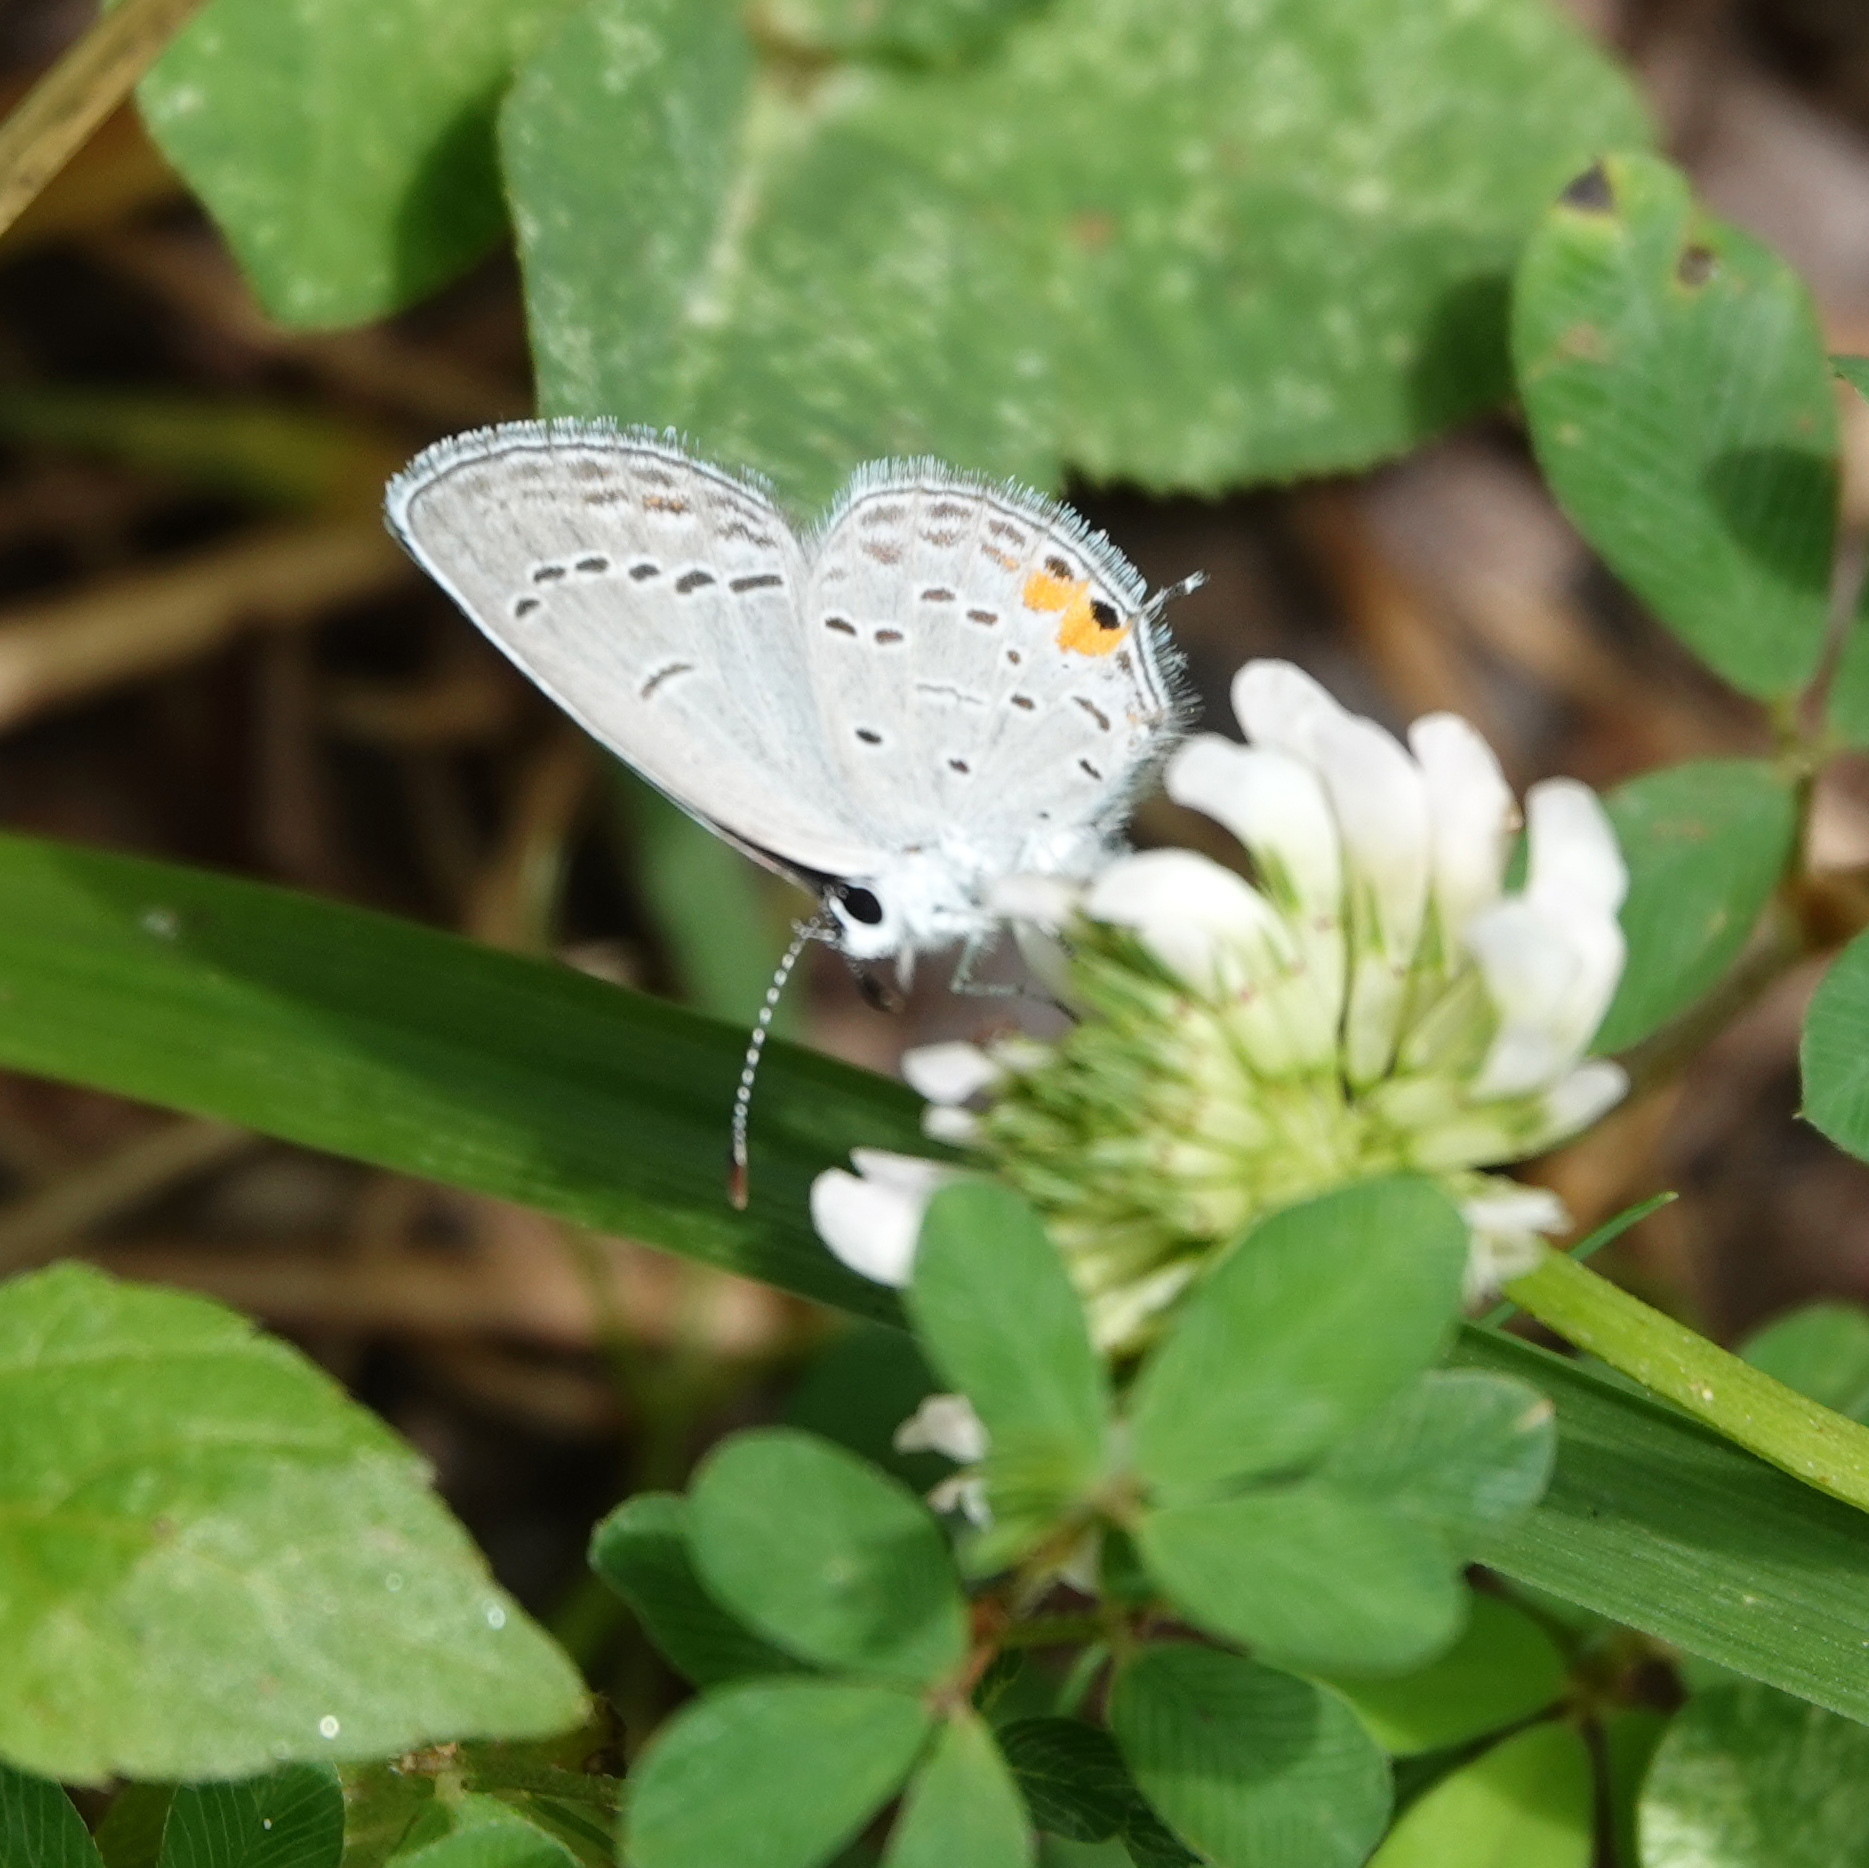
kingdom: Animalia
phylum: Arthropoda
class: Insecta
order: Lepidoptera
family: Lycaenidae
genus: Elkalyce
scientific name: Elkalyce comyntas
